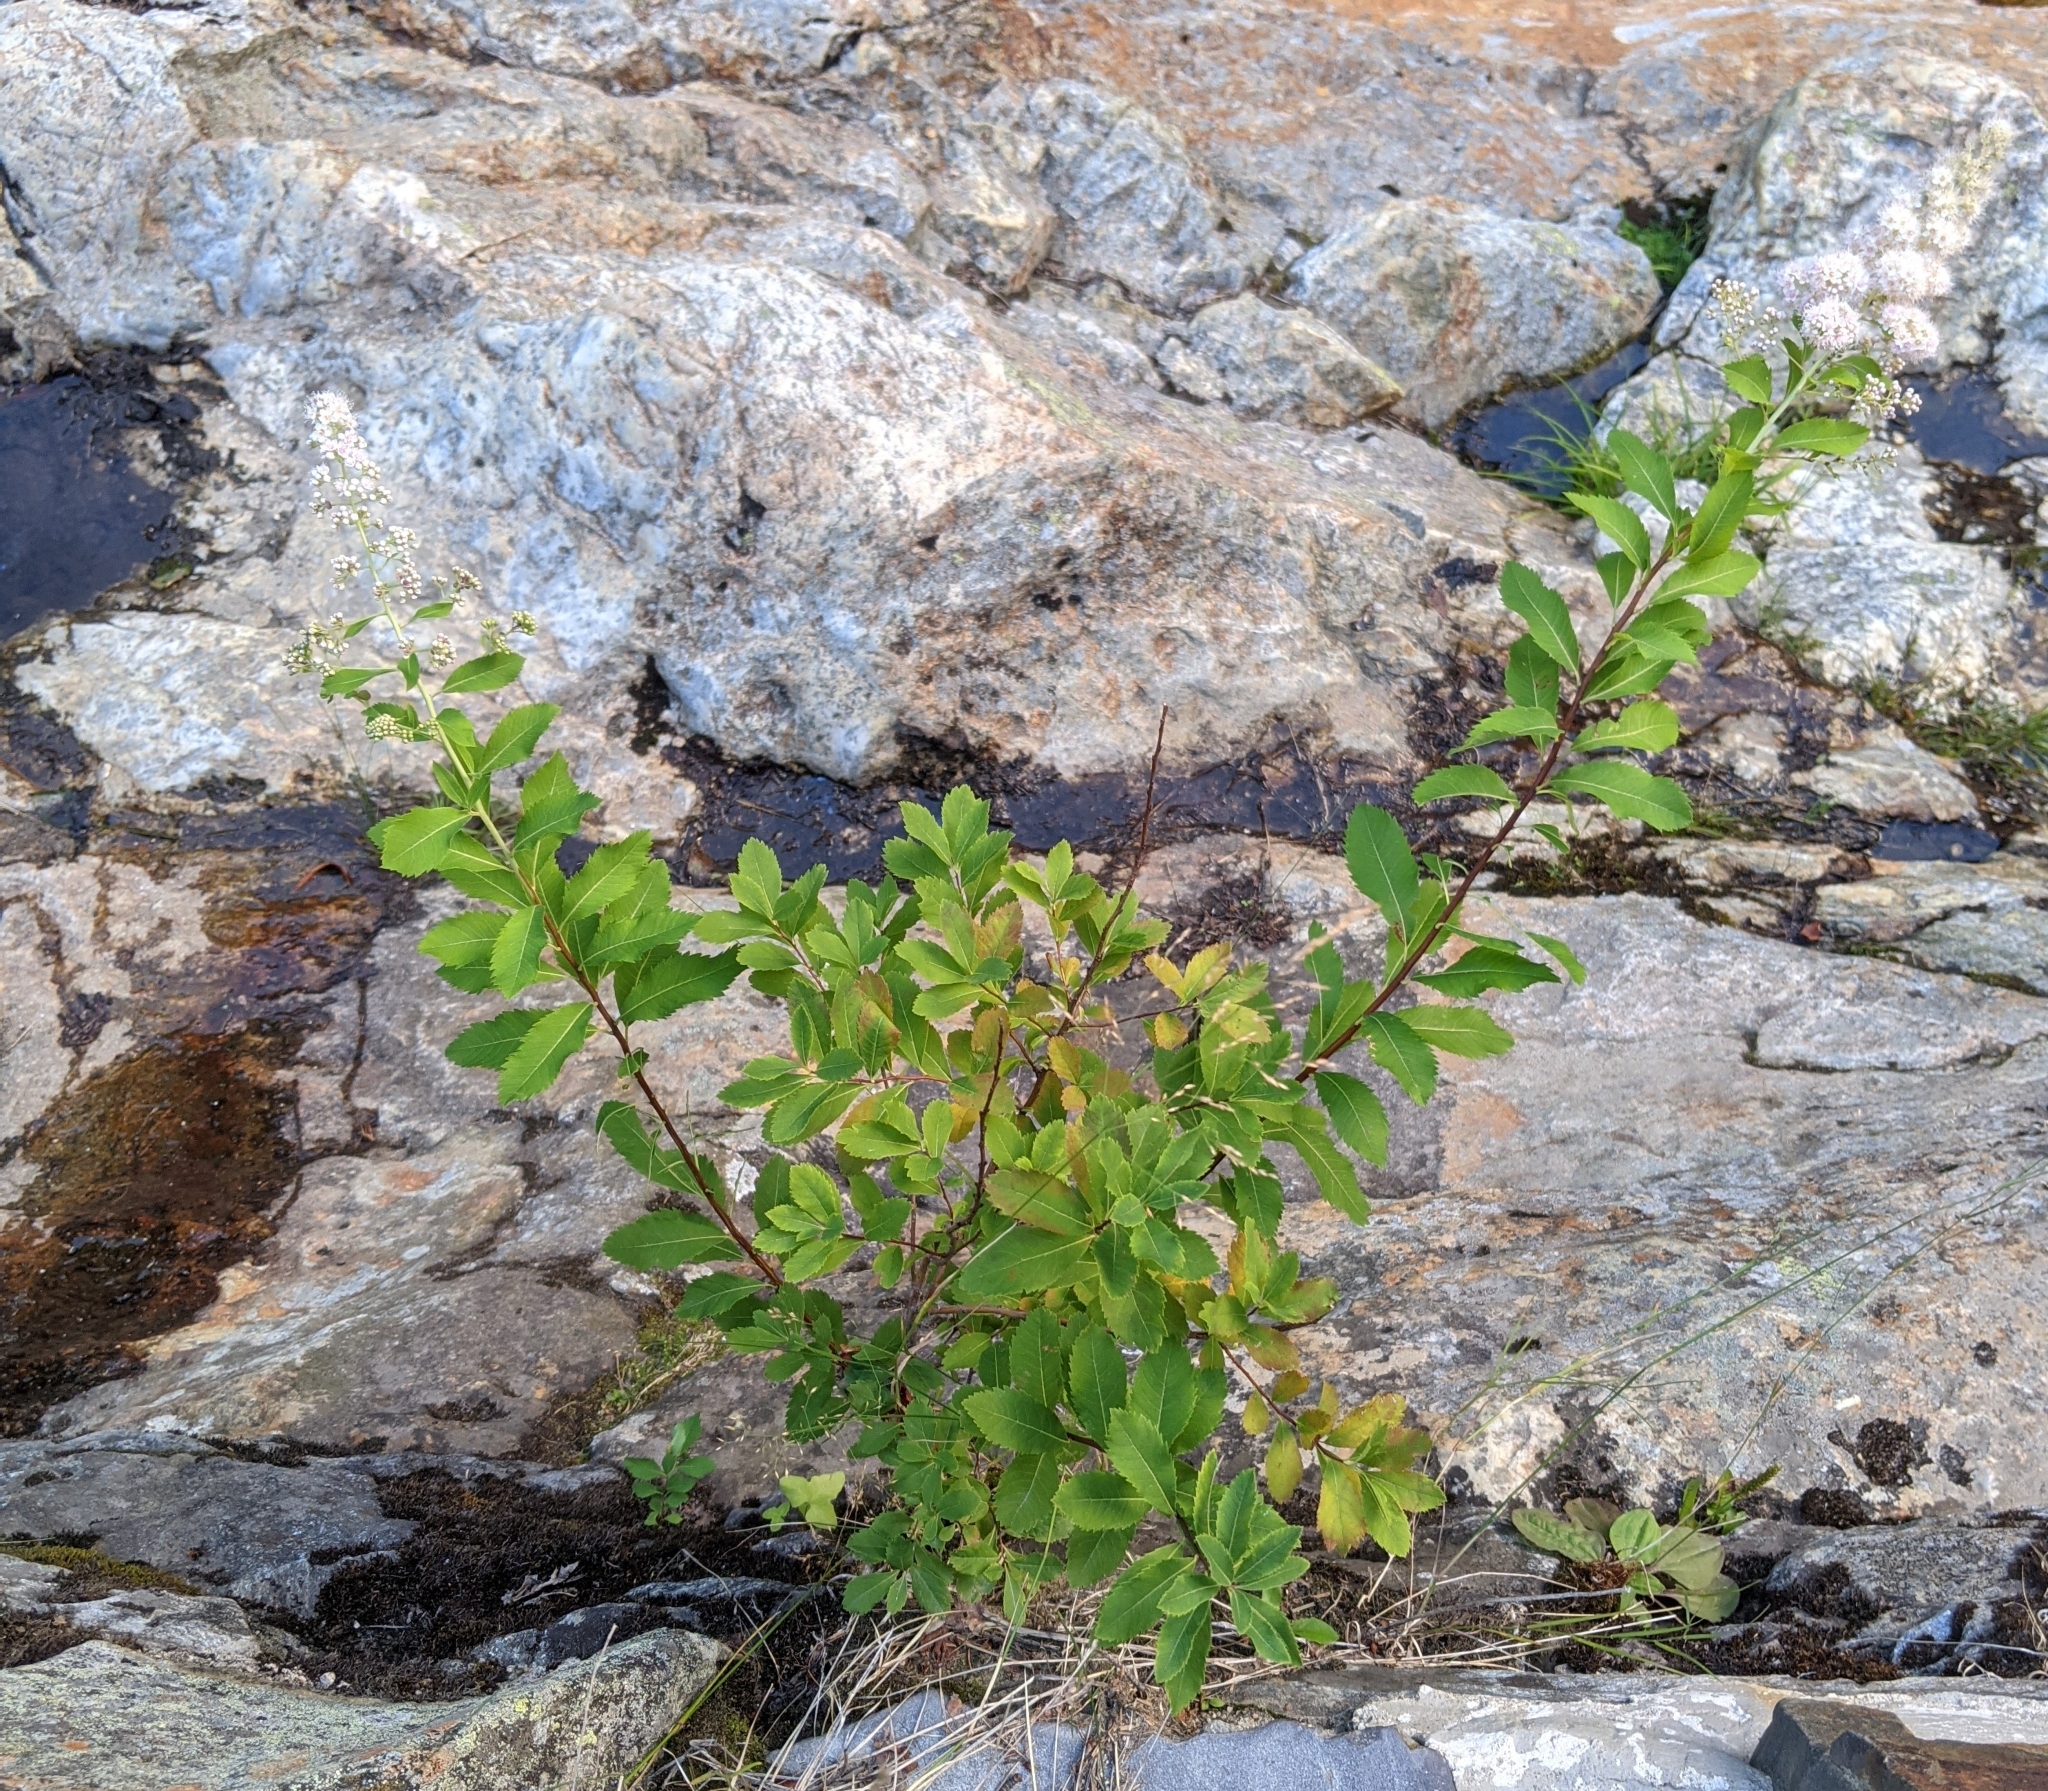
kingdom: Plantae
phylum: Tracheophyta
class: Magnoliopsida
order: Rosales
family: Rosaceae
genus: Spiraea
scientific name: Spiraea alba
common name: Pale bridewort
